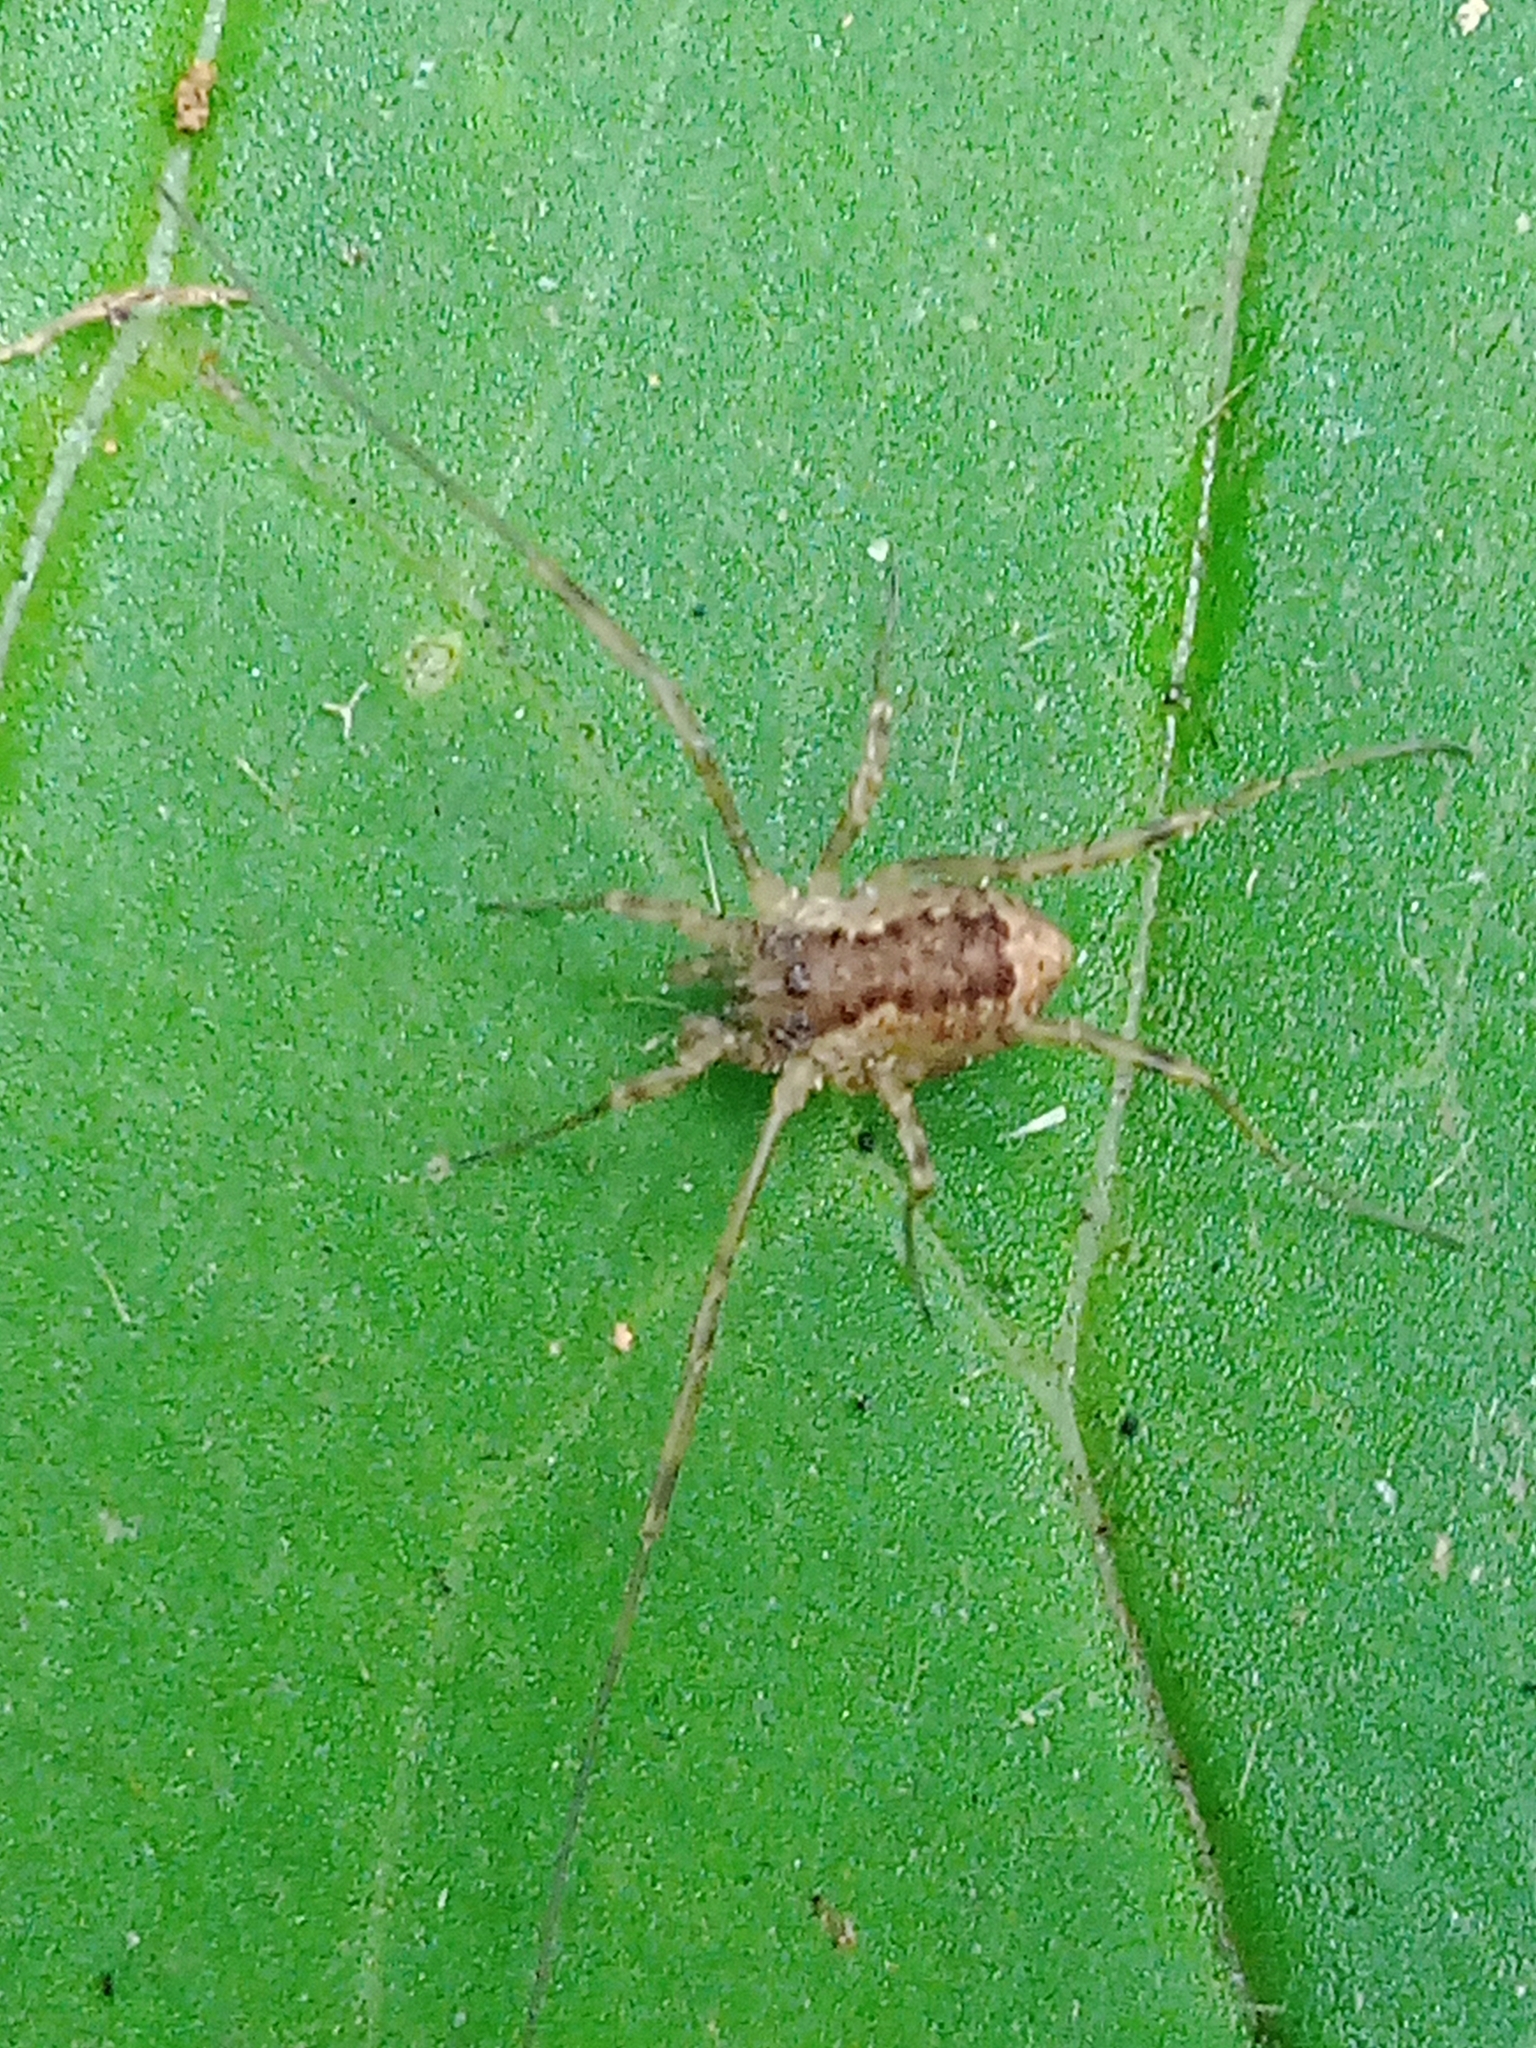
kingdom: Animalia
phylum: Arthropoda
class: Arachnida
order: Opiliones
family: Phalangiidae
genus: Oligolophus
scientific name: Oligolophus tridens
